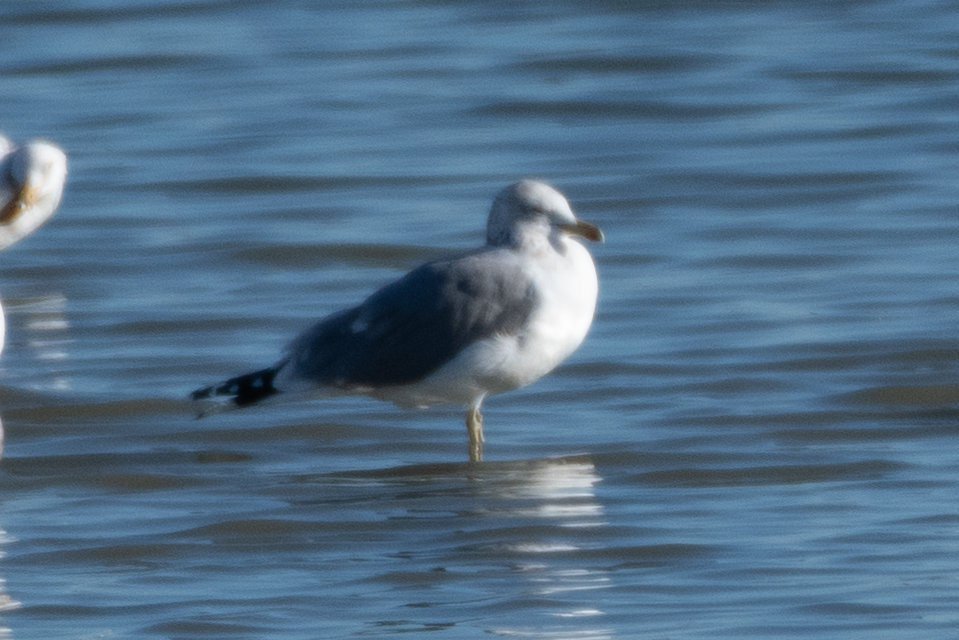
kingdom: Animalia
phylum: Chordata
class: Aves
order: Charadriiformes
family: Laridae
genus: Larus
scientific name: Larus californicus
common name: California gull
